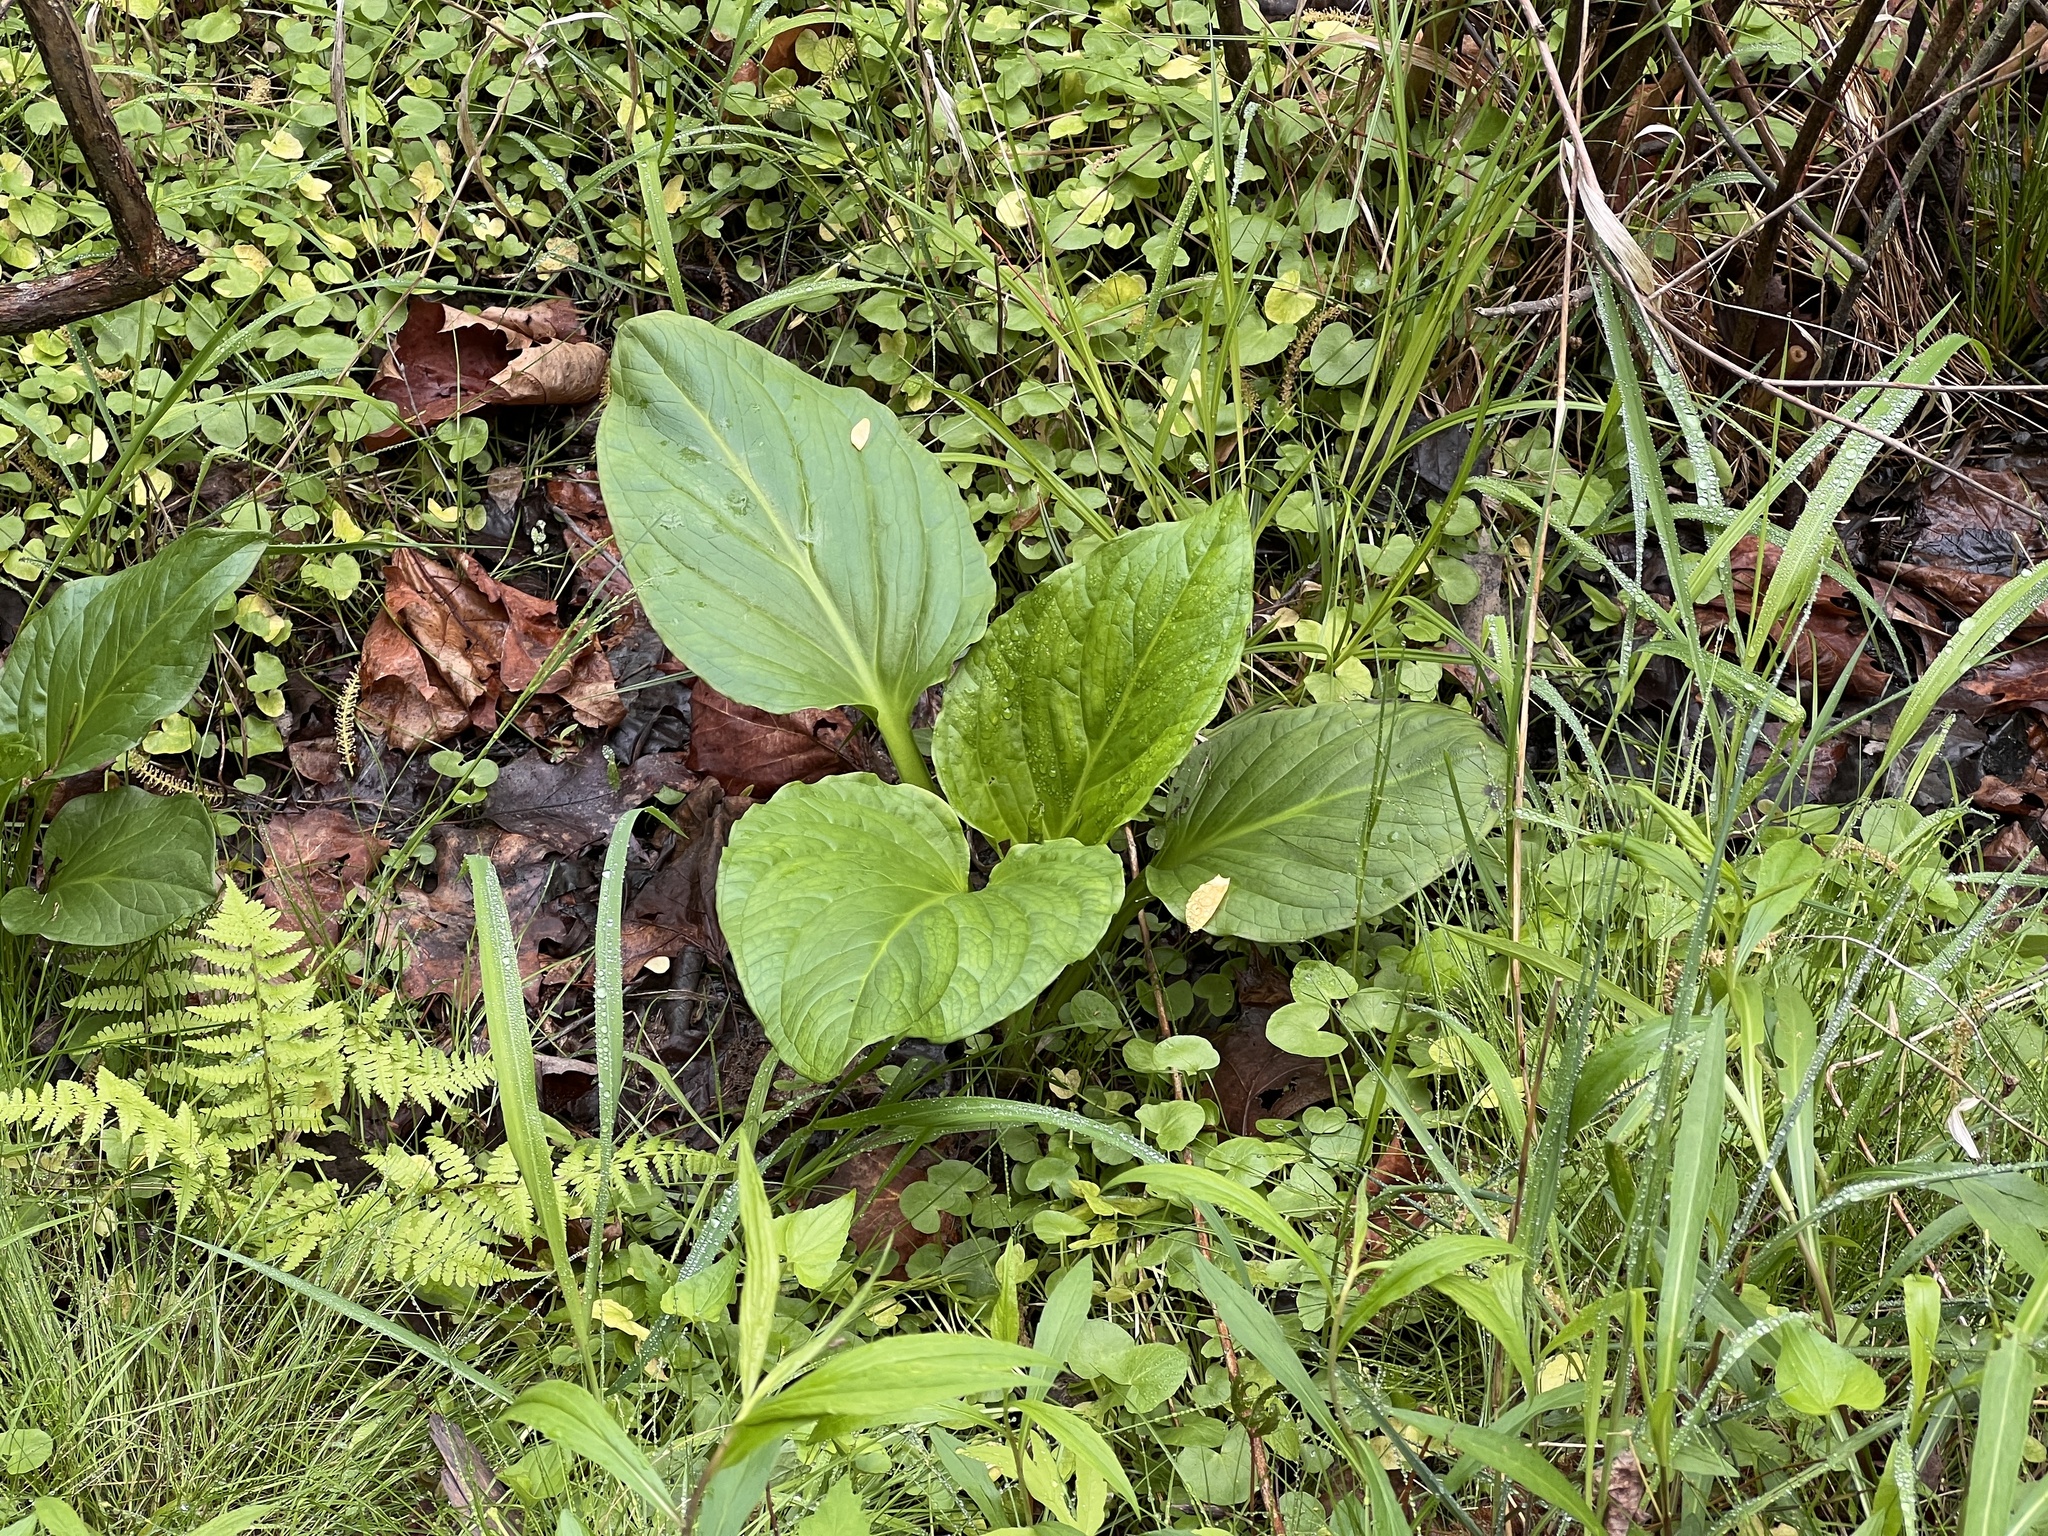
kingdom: Plantae
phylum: Tracheophyta
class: Liliopsida
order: Alismatales
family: Araceae
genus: Symplocarpus
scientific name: Symplocarpus foetidus
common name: Eastern skunk cabbage
